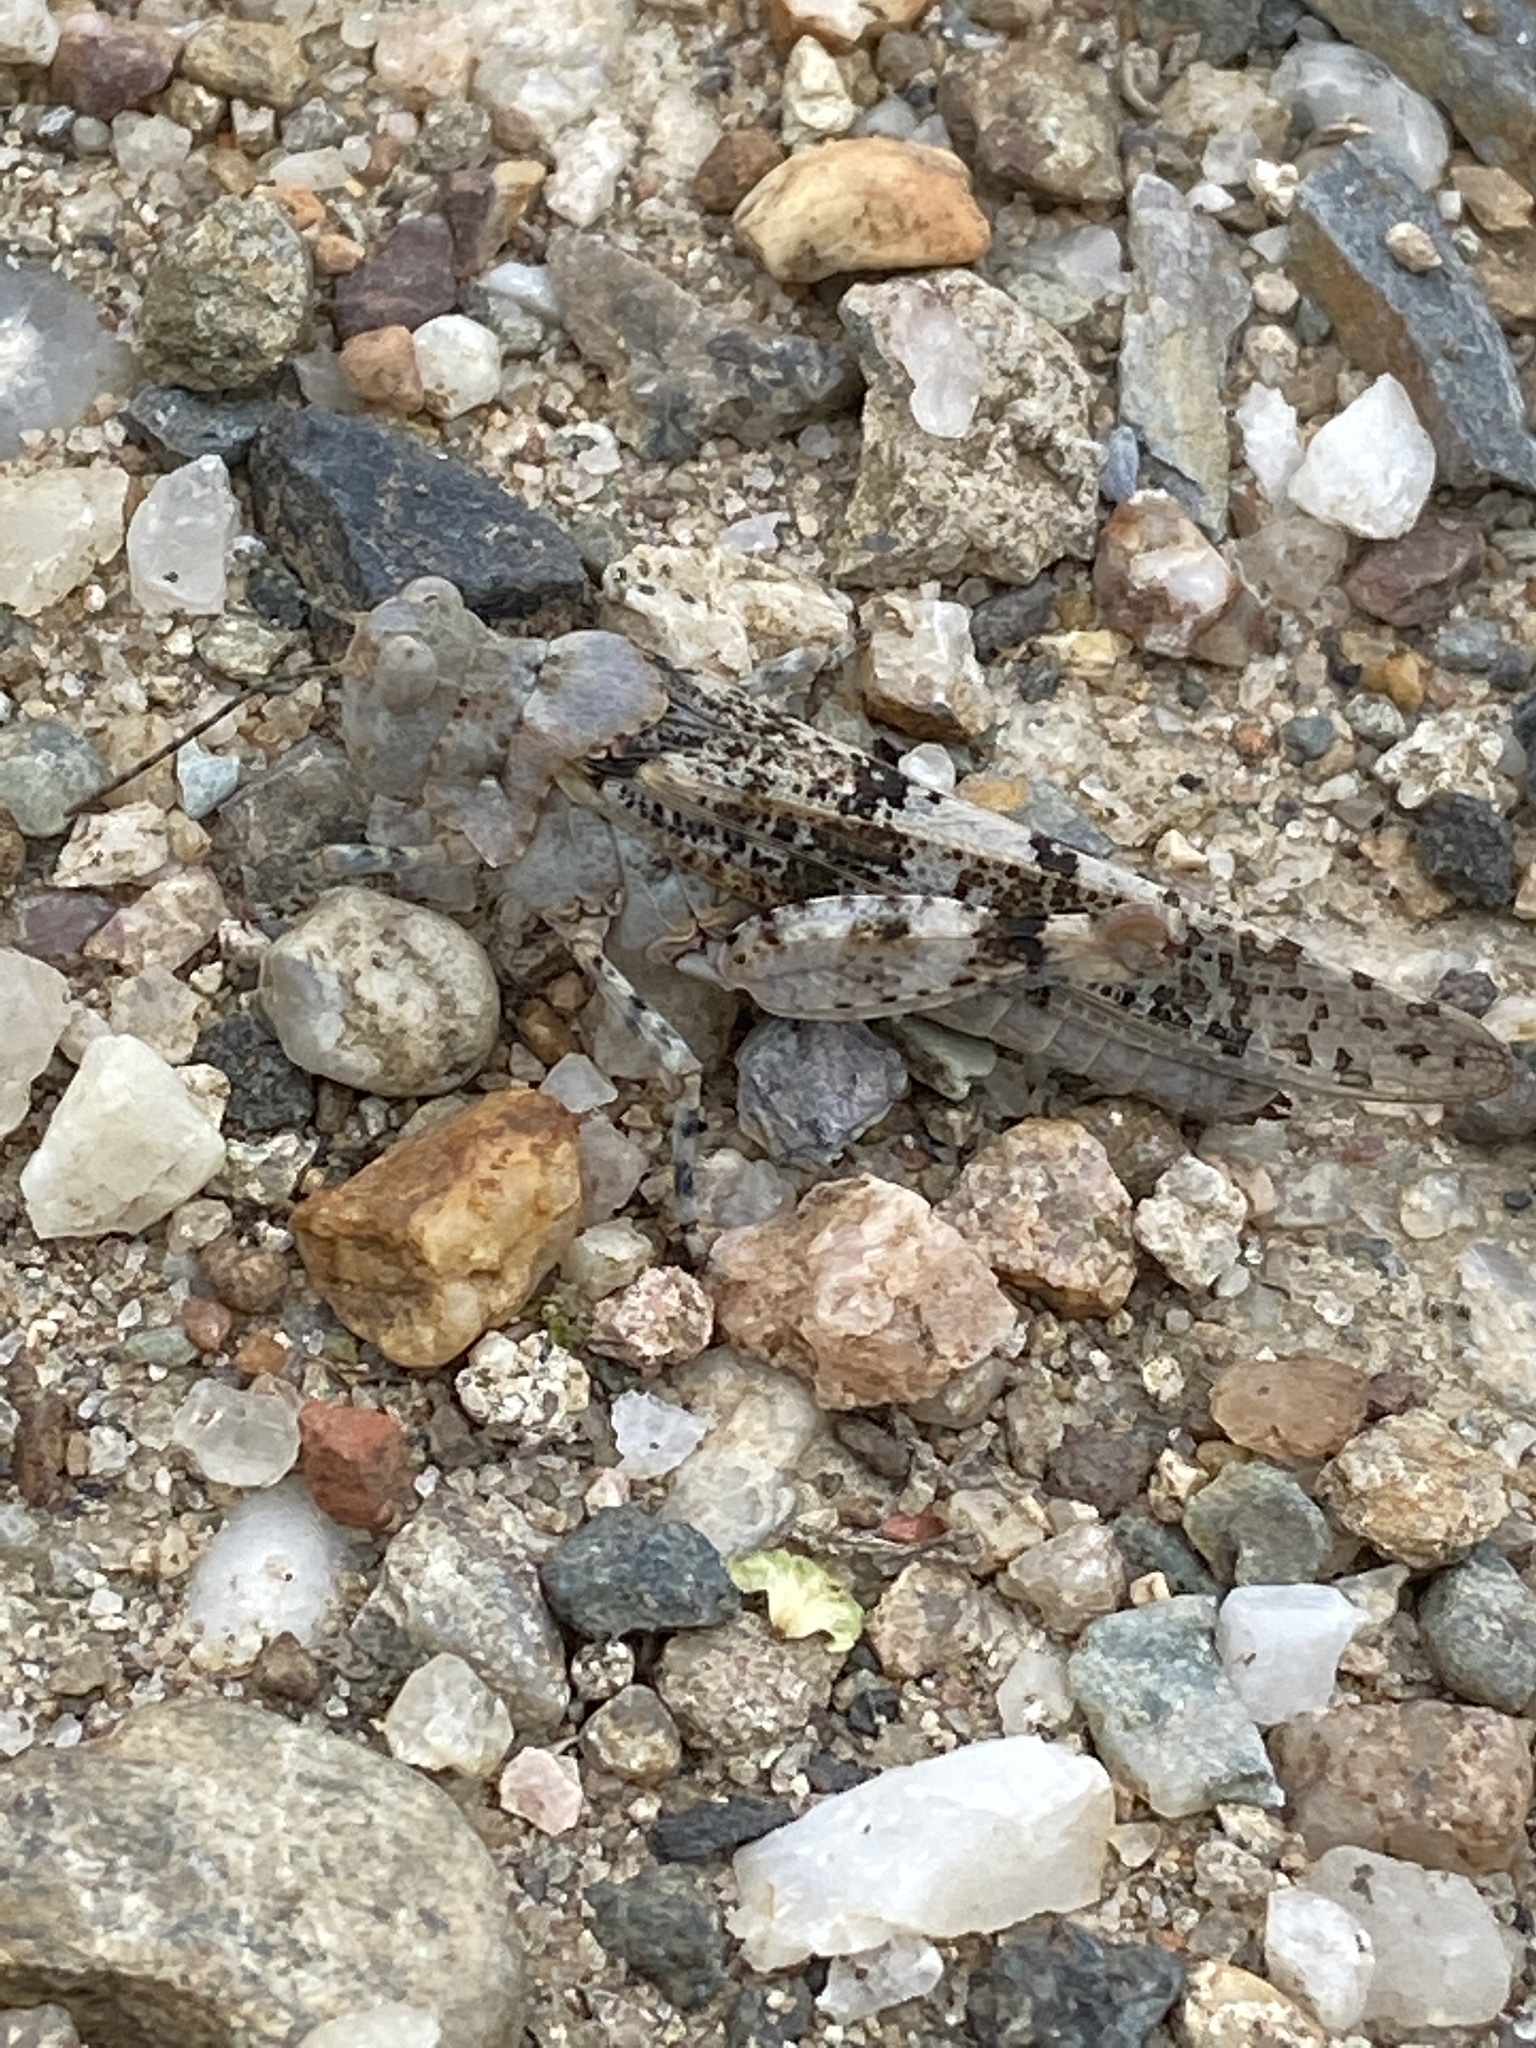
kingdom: Animalia
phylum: Arthropoda
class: Insecta
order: Orthoptera
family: Acrididae
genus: Sphingonotus
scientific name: Sphingonotus caerulans
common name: Blue-winged locust
